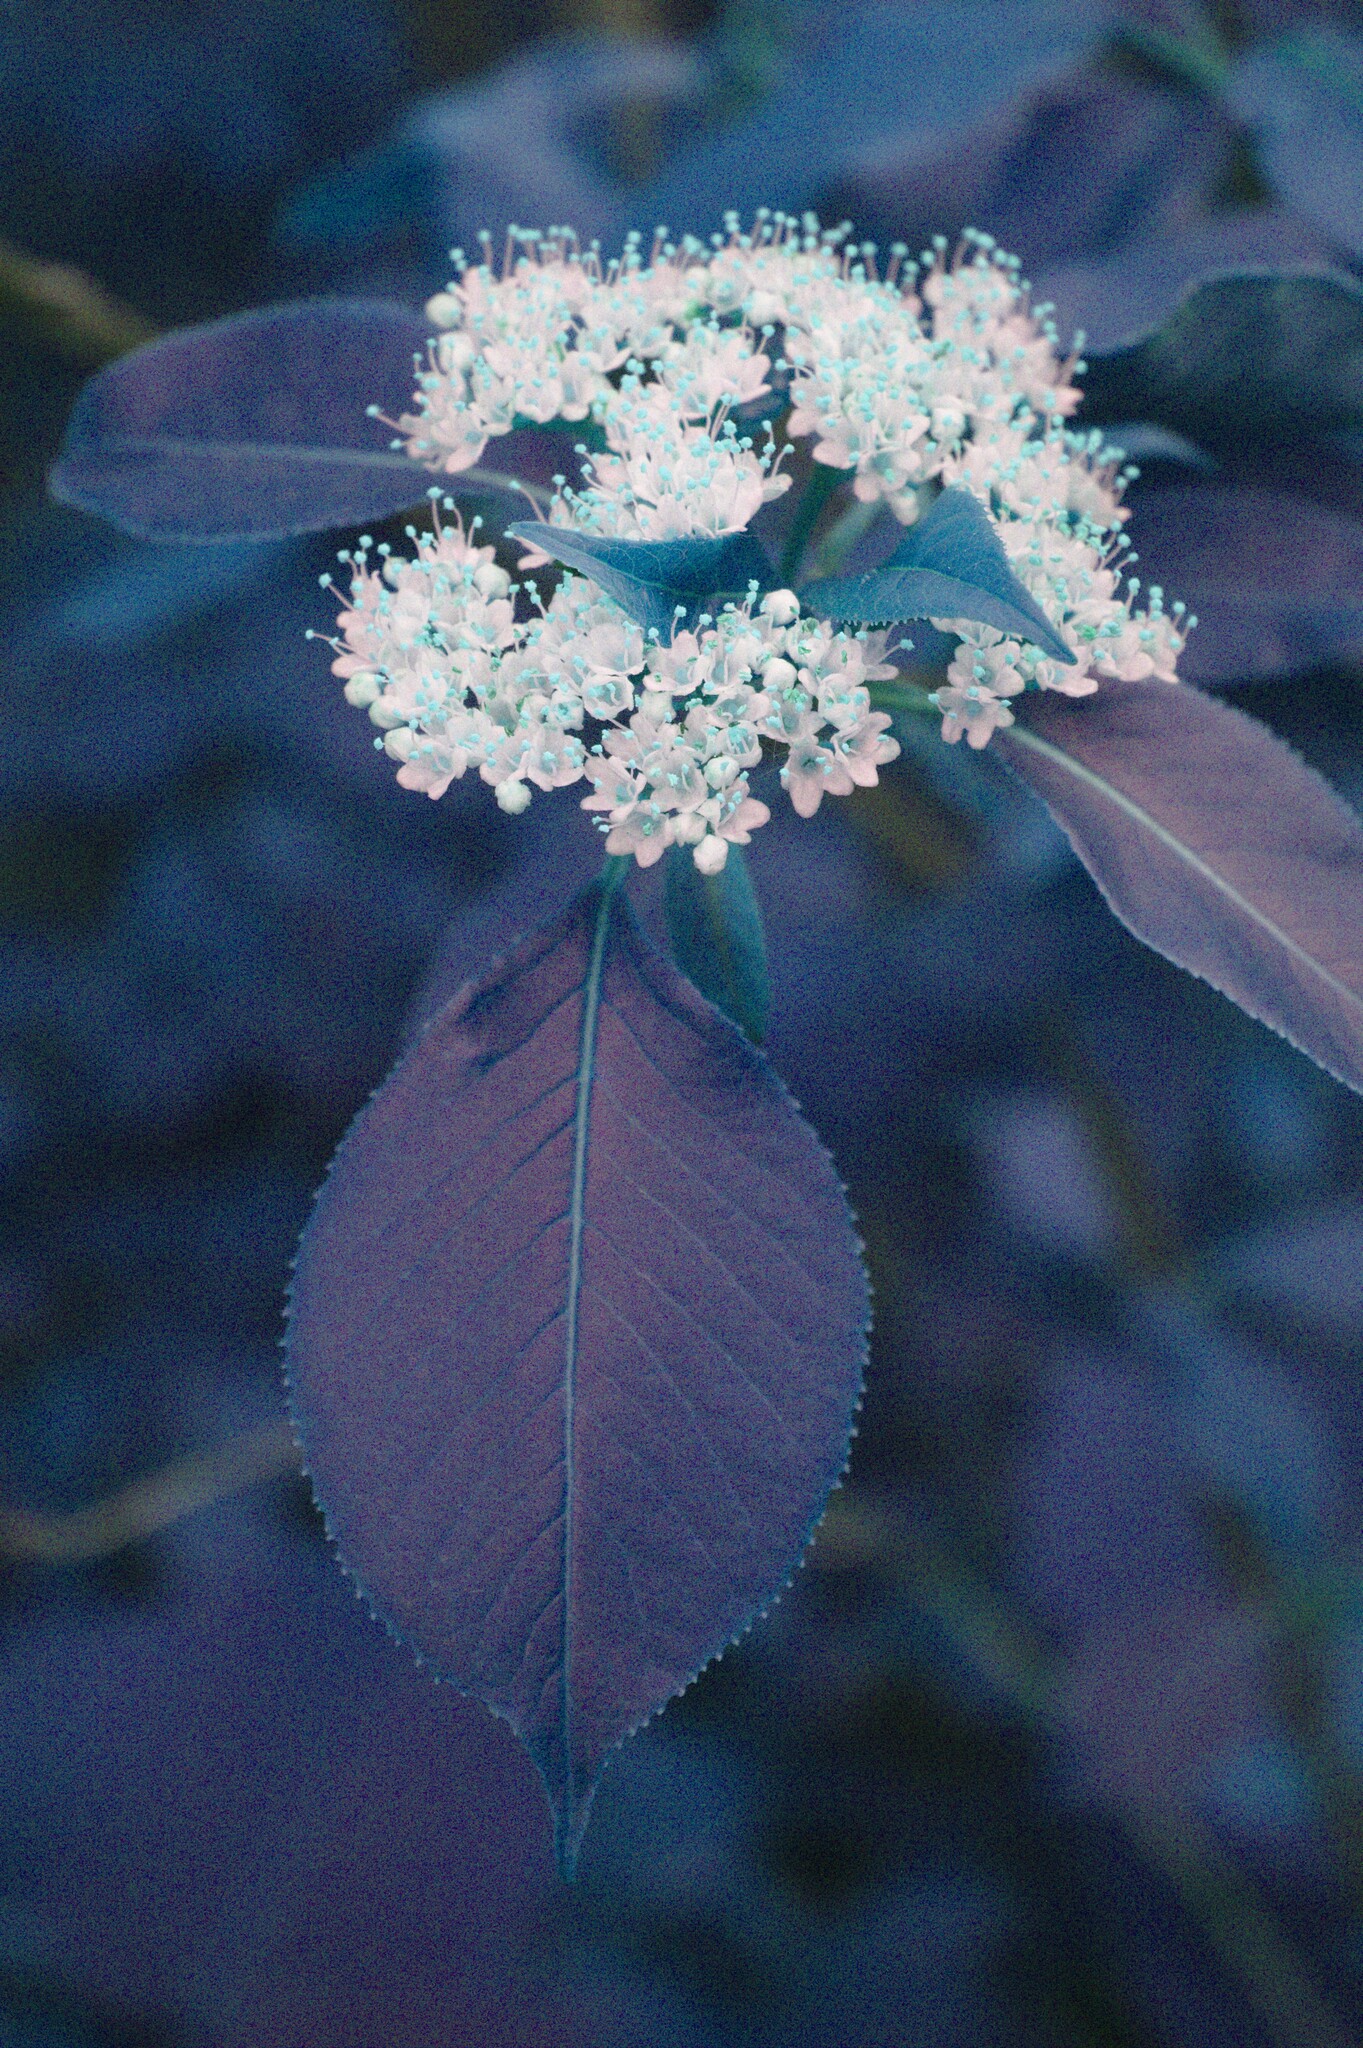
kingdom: Plantae
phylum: Tracheophyta
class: Magnoliopsida
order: Dipsacales
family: Viburnaceae
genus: Viburnum
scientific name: Viburnum lentago
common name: Black haw
